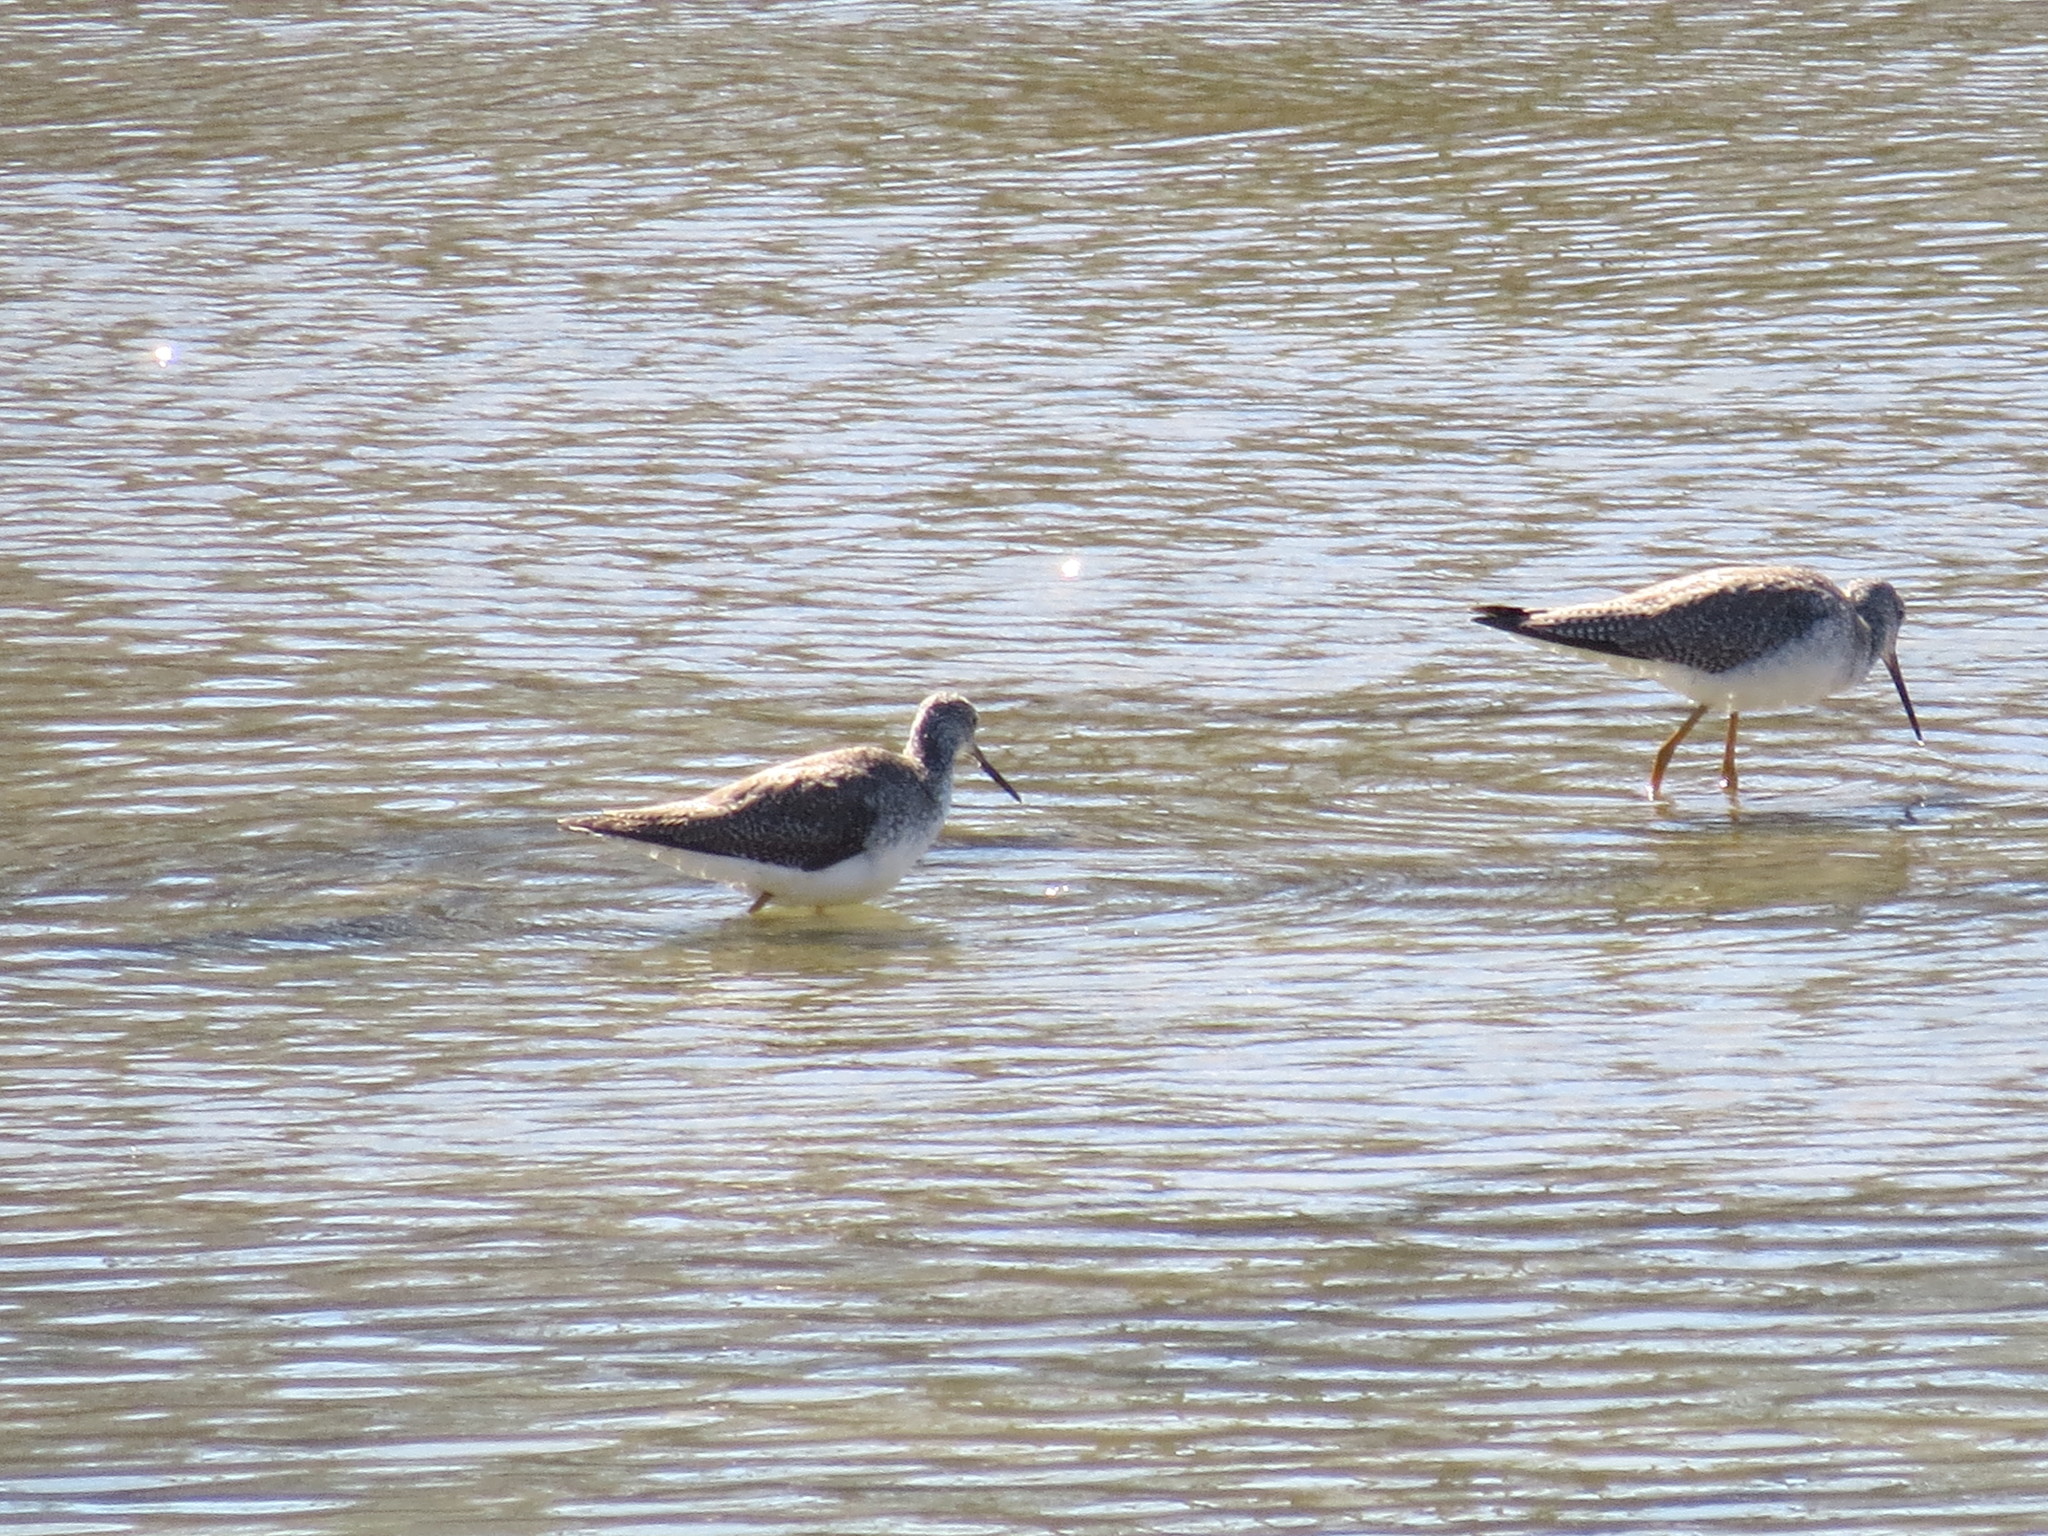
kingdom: Animalia
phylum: Chordata
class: Aves
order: Charadriiformes
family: Scolopacidae
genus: Tringa
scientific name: Tringa melanoleuca
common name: Greater yellowlegs
